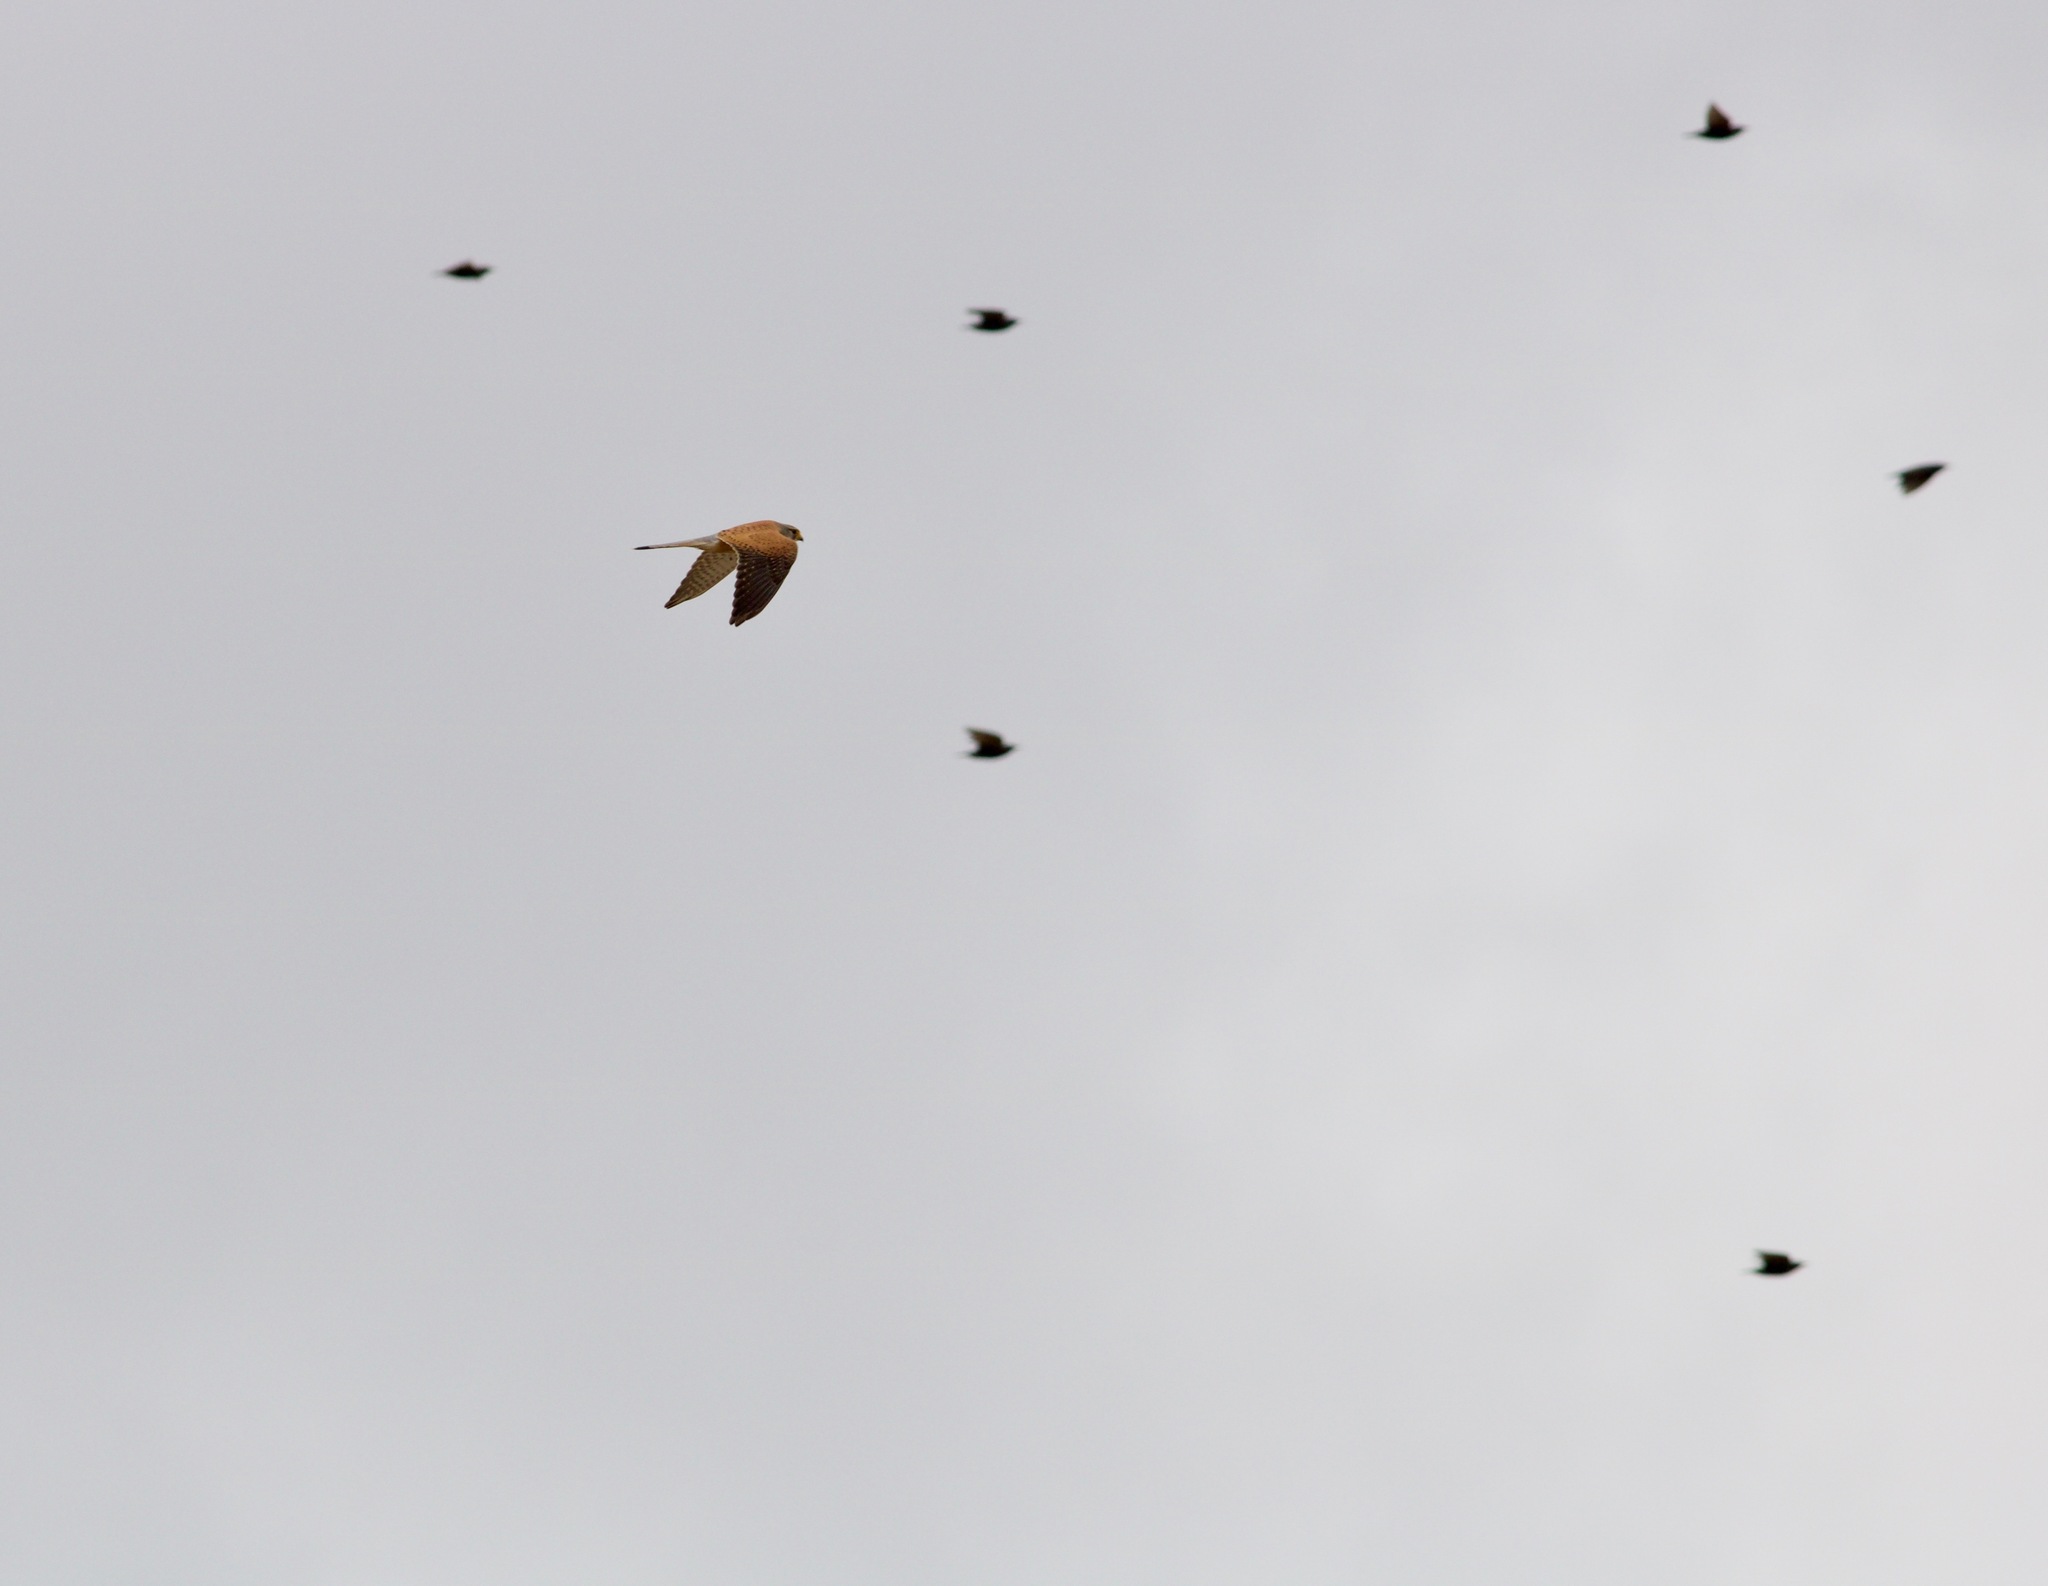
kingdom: Animalia
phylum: Chordata
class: Aves
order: Falconiformes
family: Falconidae
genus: Falco
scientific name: Falco tinnunculus
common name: Common kestrel
